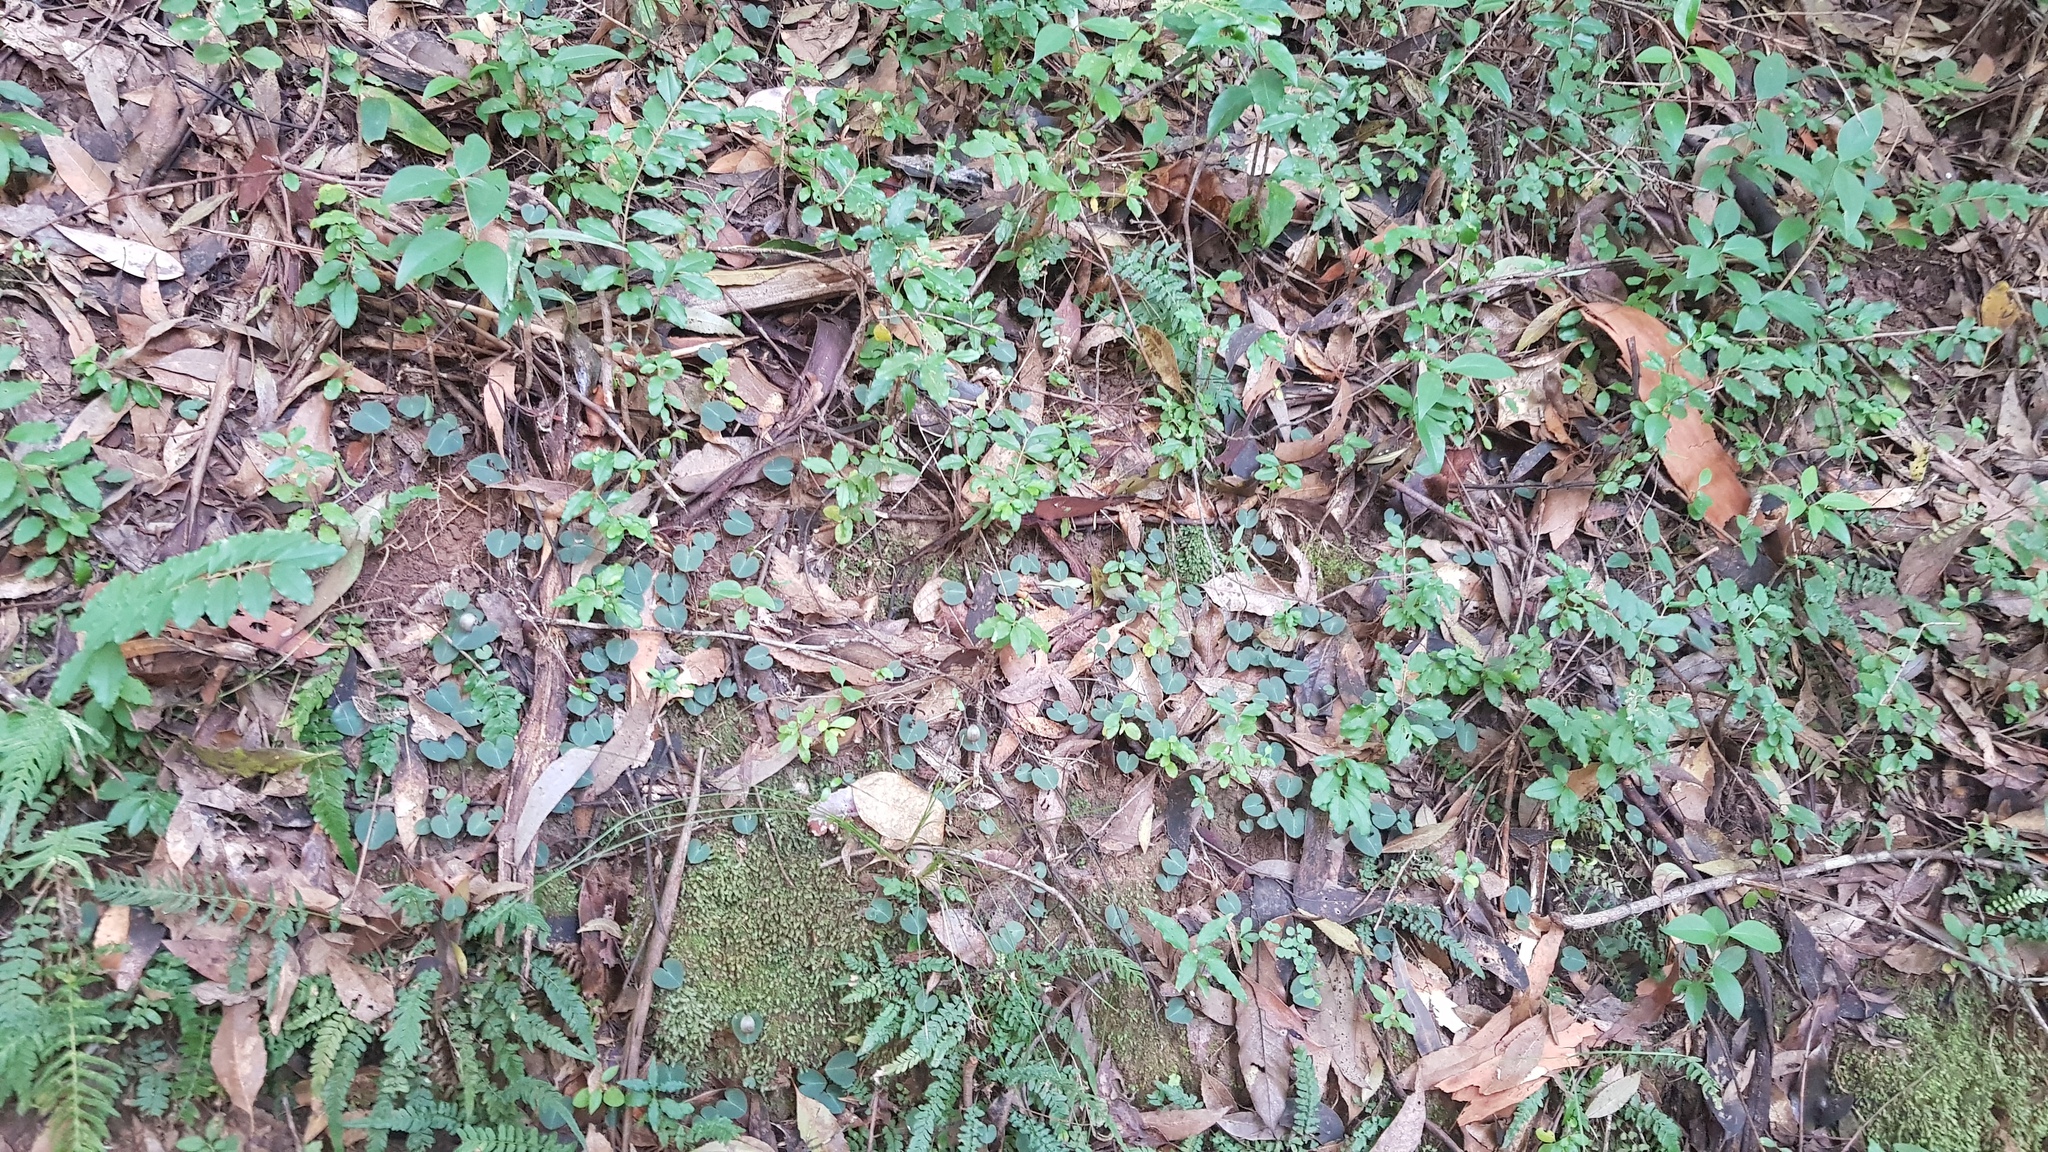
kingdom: Plantae
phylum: Tracheophyta
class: Liliopsida
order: Asparagales
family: Orchidaceae
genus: Corybas
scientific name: Corybas aconitiflorus
